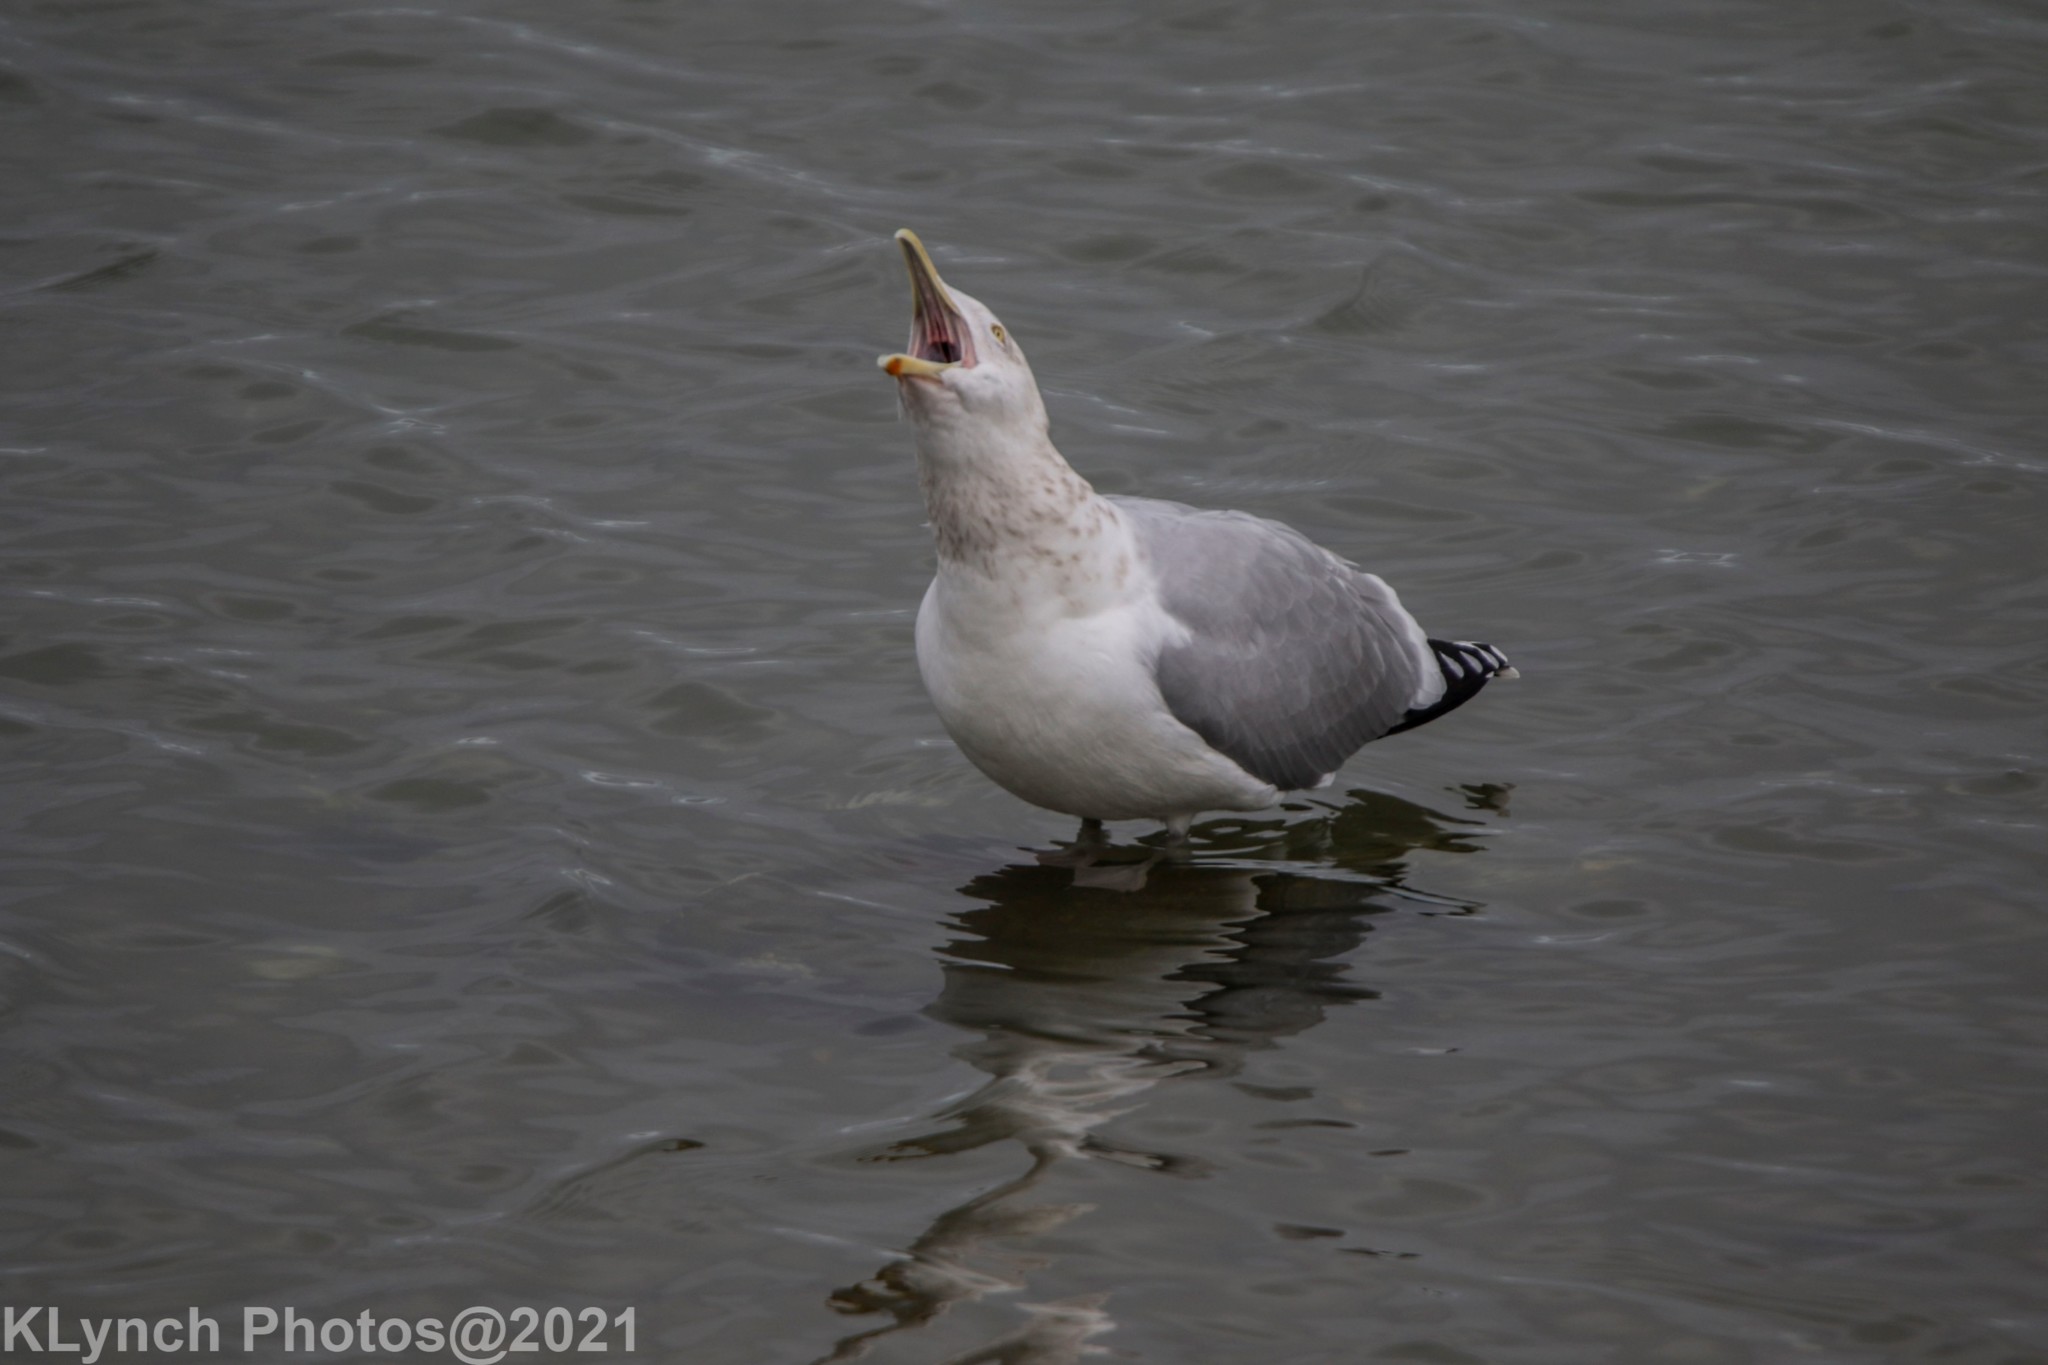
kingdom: Animalia
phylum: Chordata
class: Aves
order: Charadriiformes
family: Laridae
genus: Larus
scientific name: Larus argentatus
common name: Herring gull
